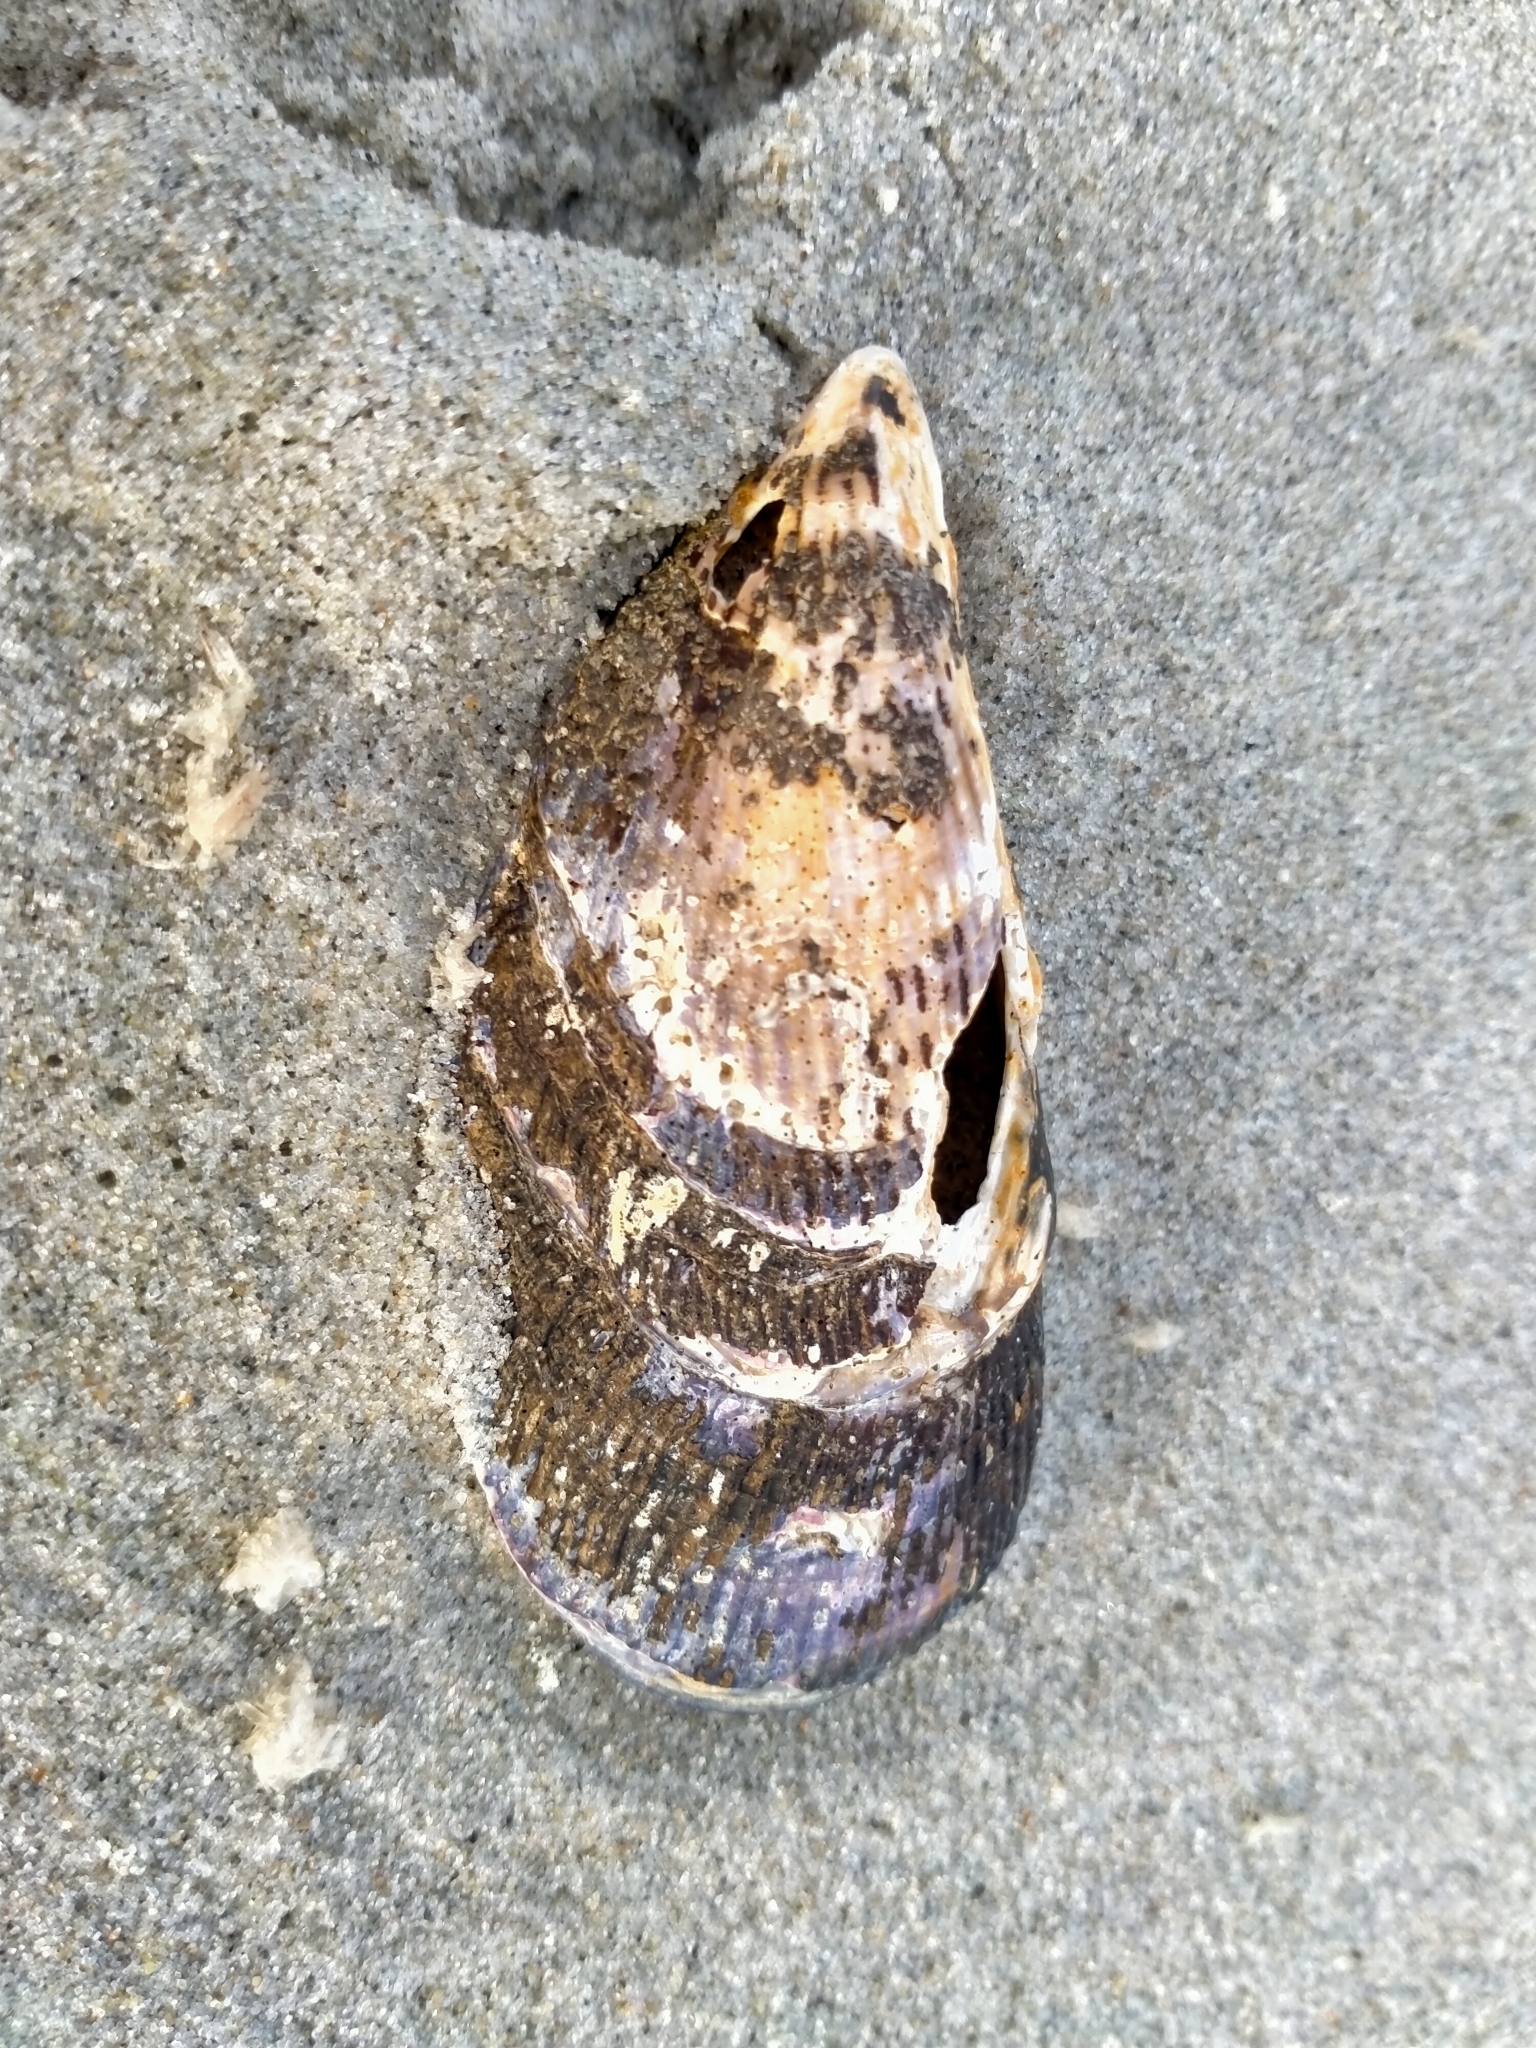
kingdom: Animalia
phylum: Mollusca
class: Bivalvia
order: Mytilida
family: Mytilidae
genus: Aulacomya
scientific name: Aulacomya maoriana
